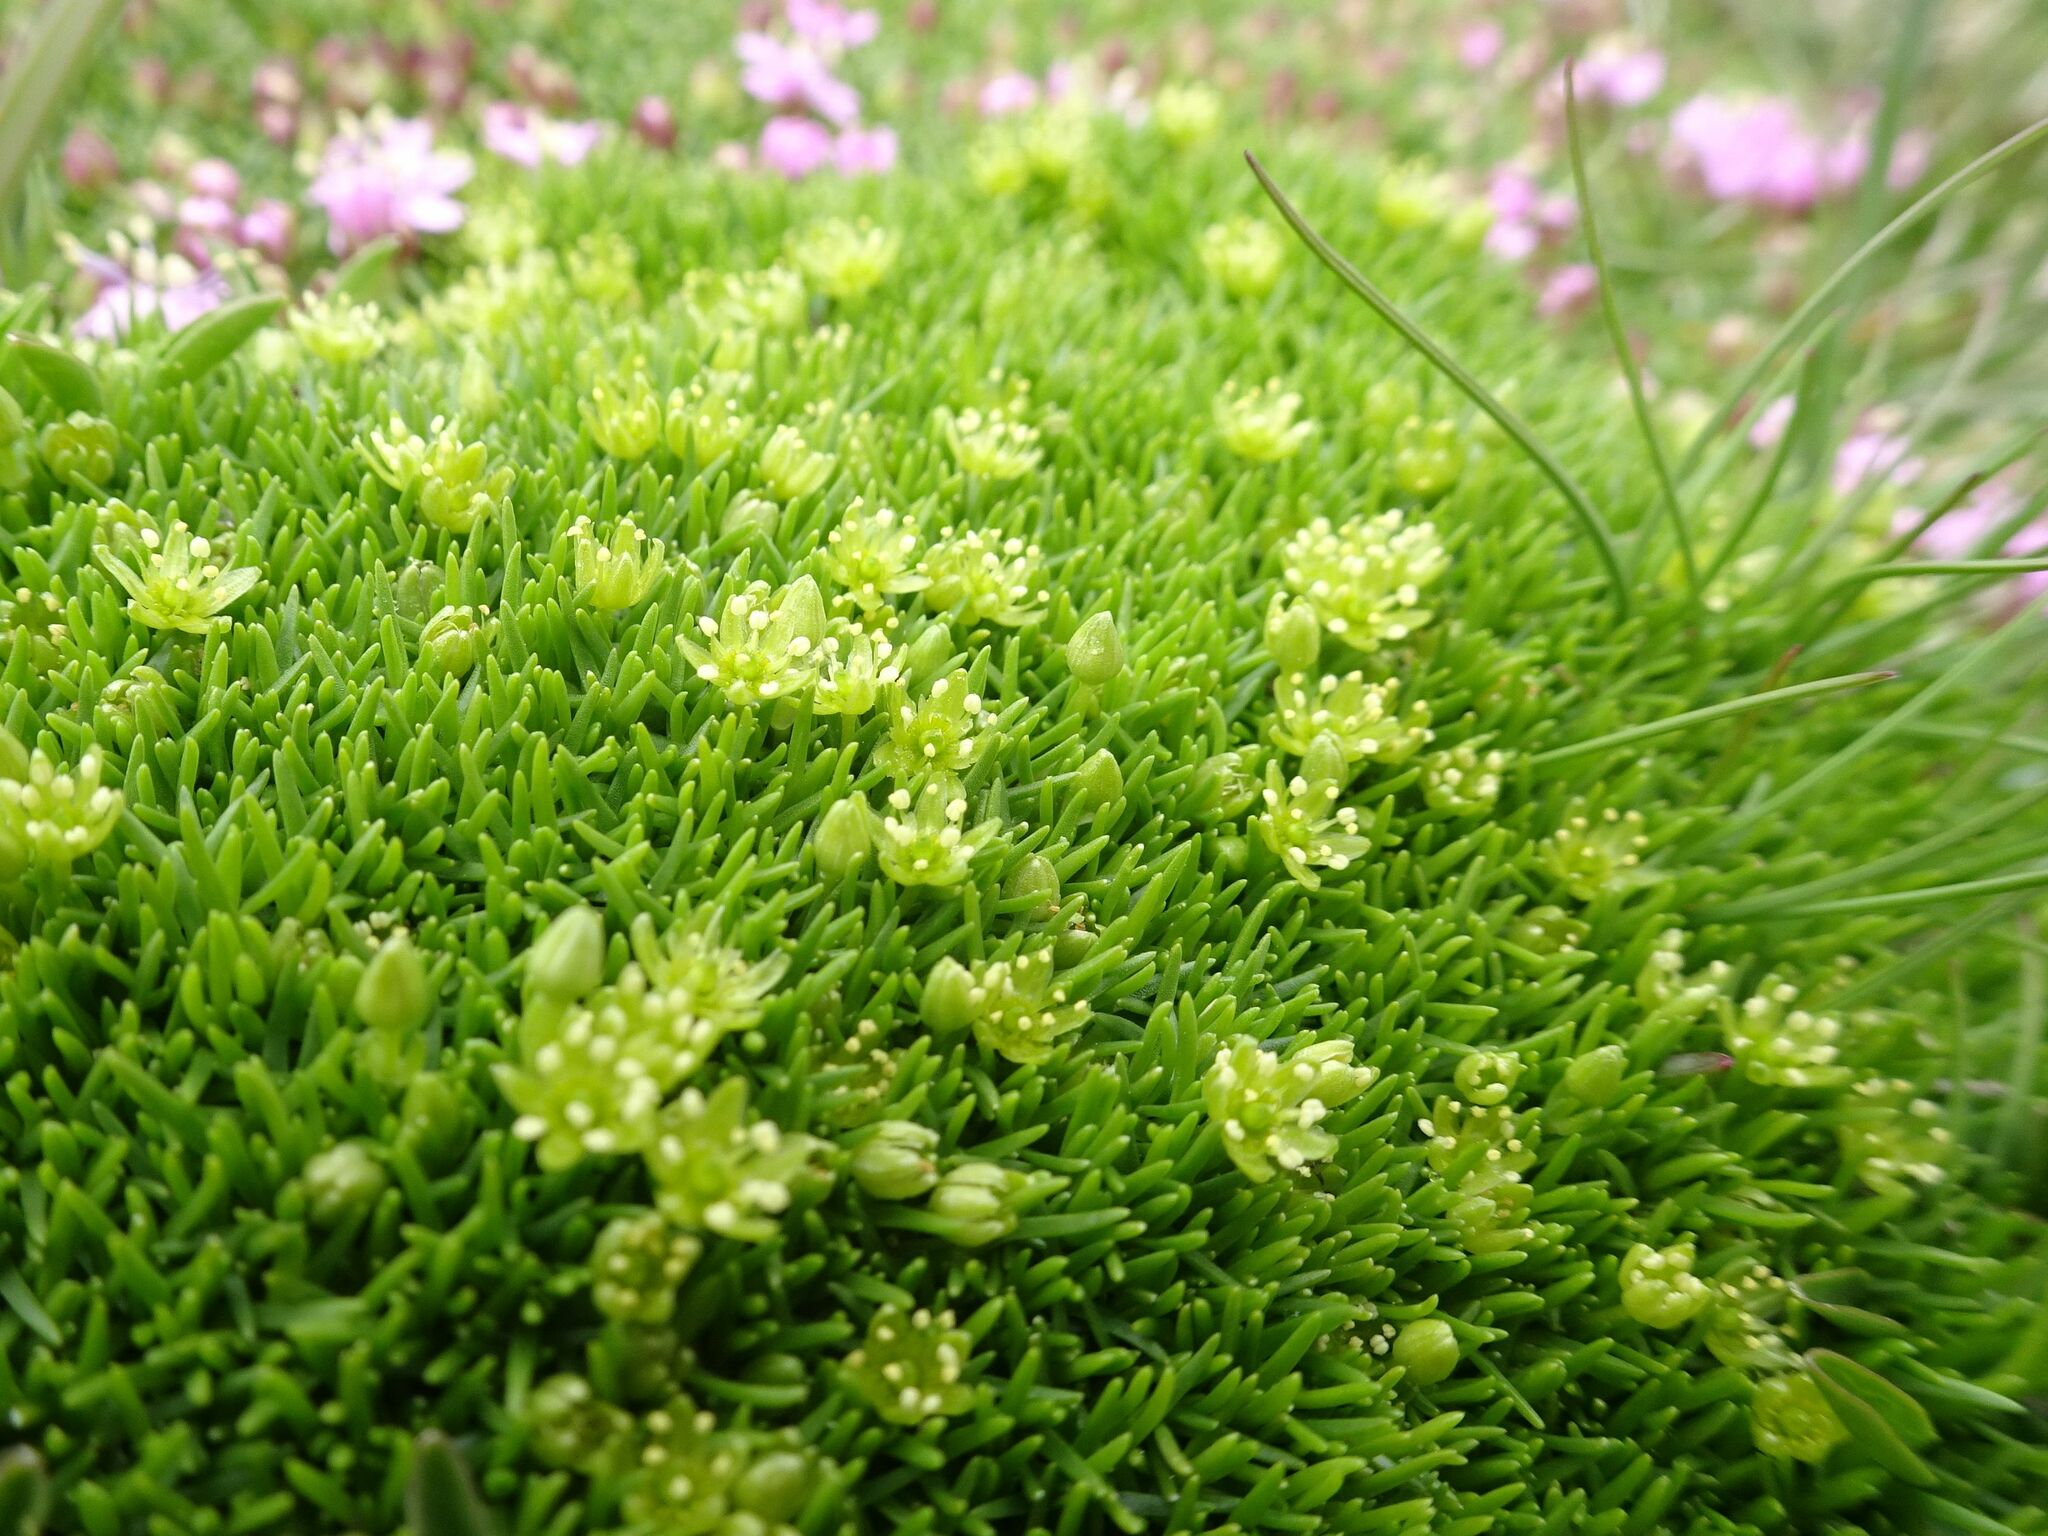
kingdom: Plantae
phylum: Tracheophyta
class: Magnoliopsida
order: Caryophyllales
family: Caryophyllaceae
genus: Cherleria
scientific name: Cherleria sedoides
